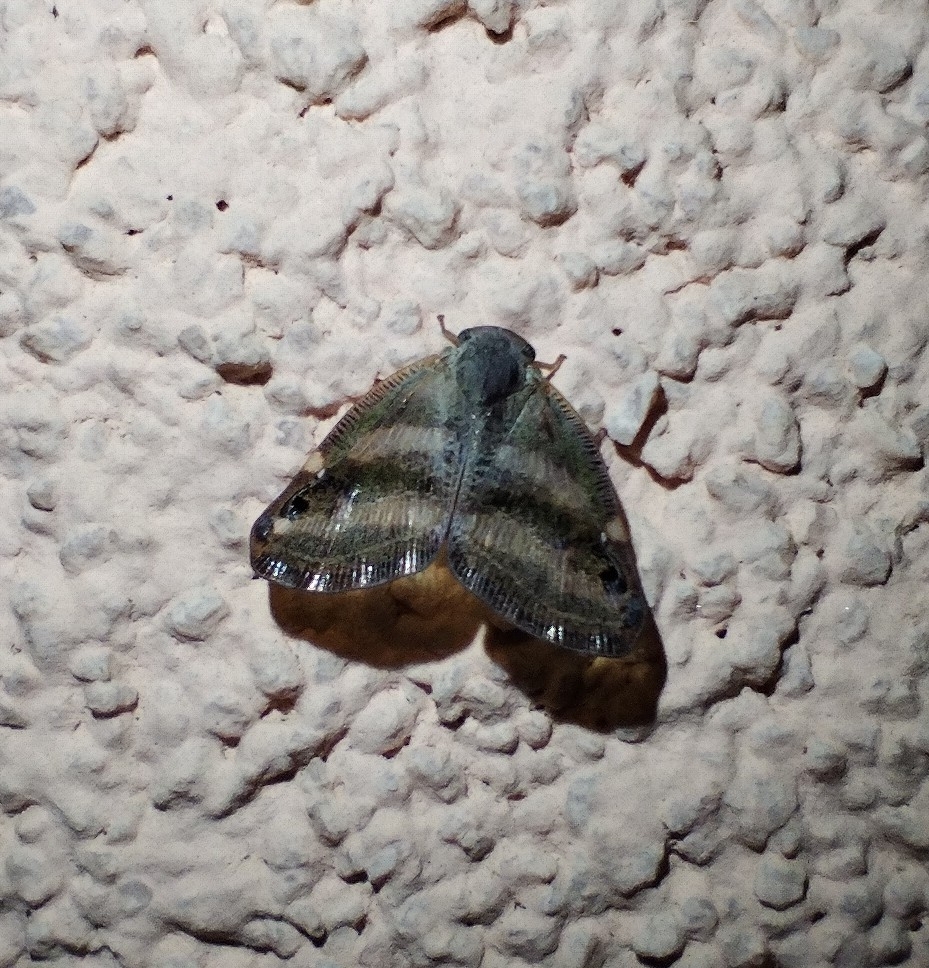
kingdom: Animalia
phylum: Arthropoda
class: Insecta
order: Hemiptera
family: Ricaniidae
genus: Orosanga
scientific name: Orosanga japonica
